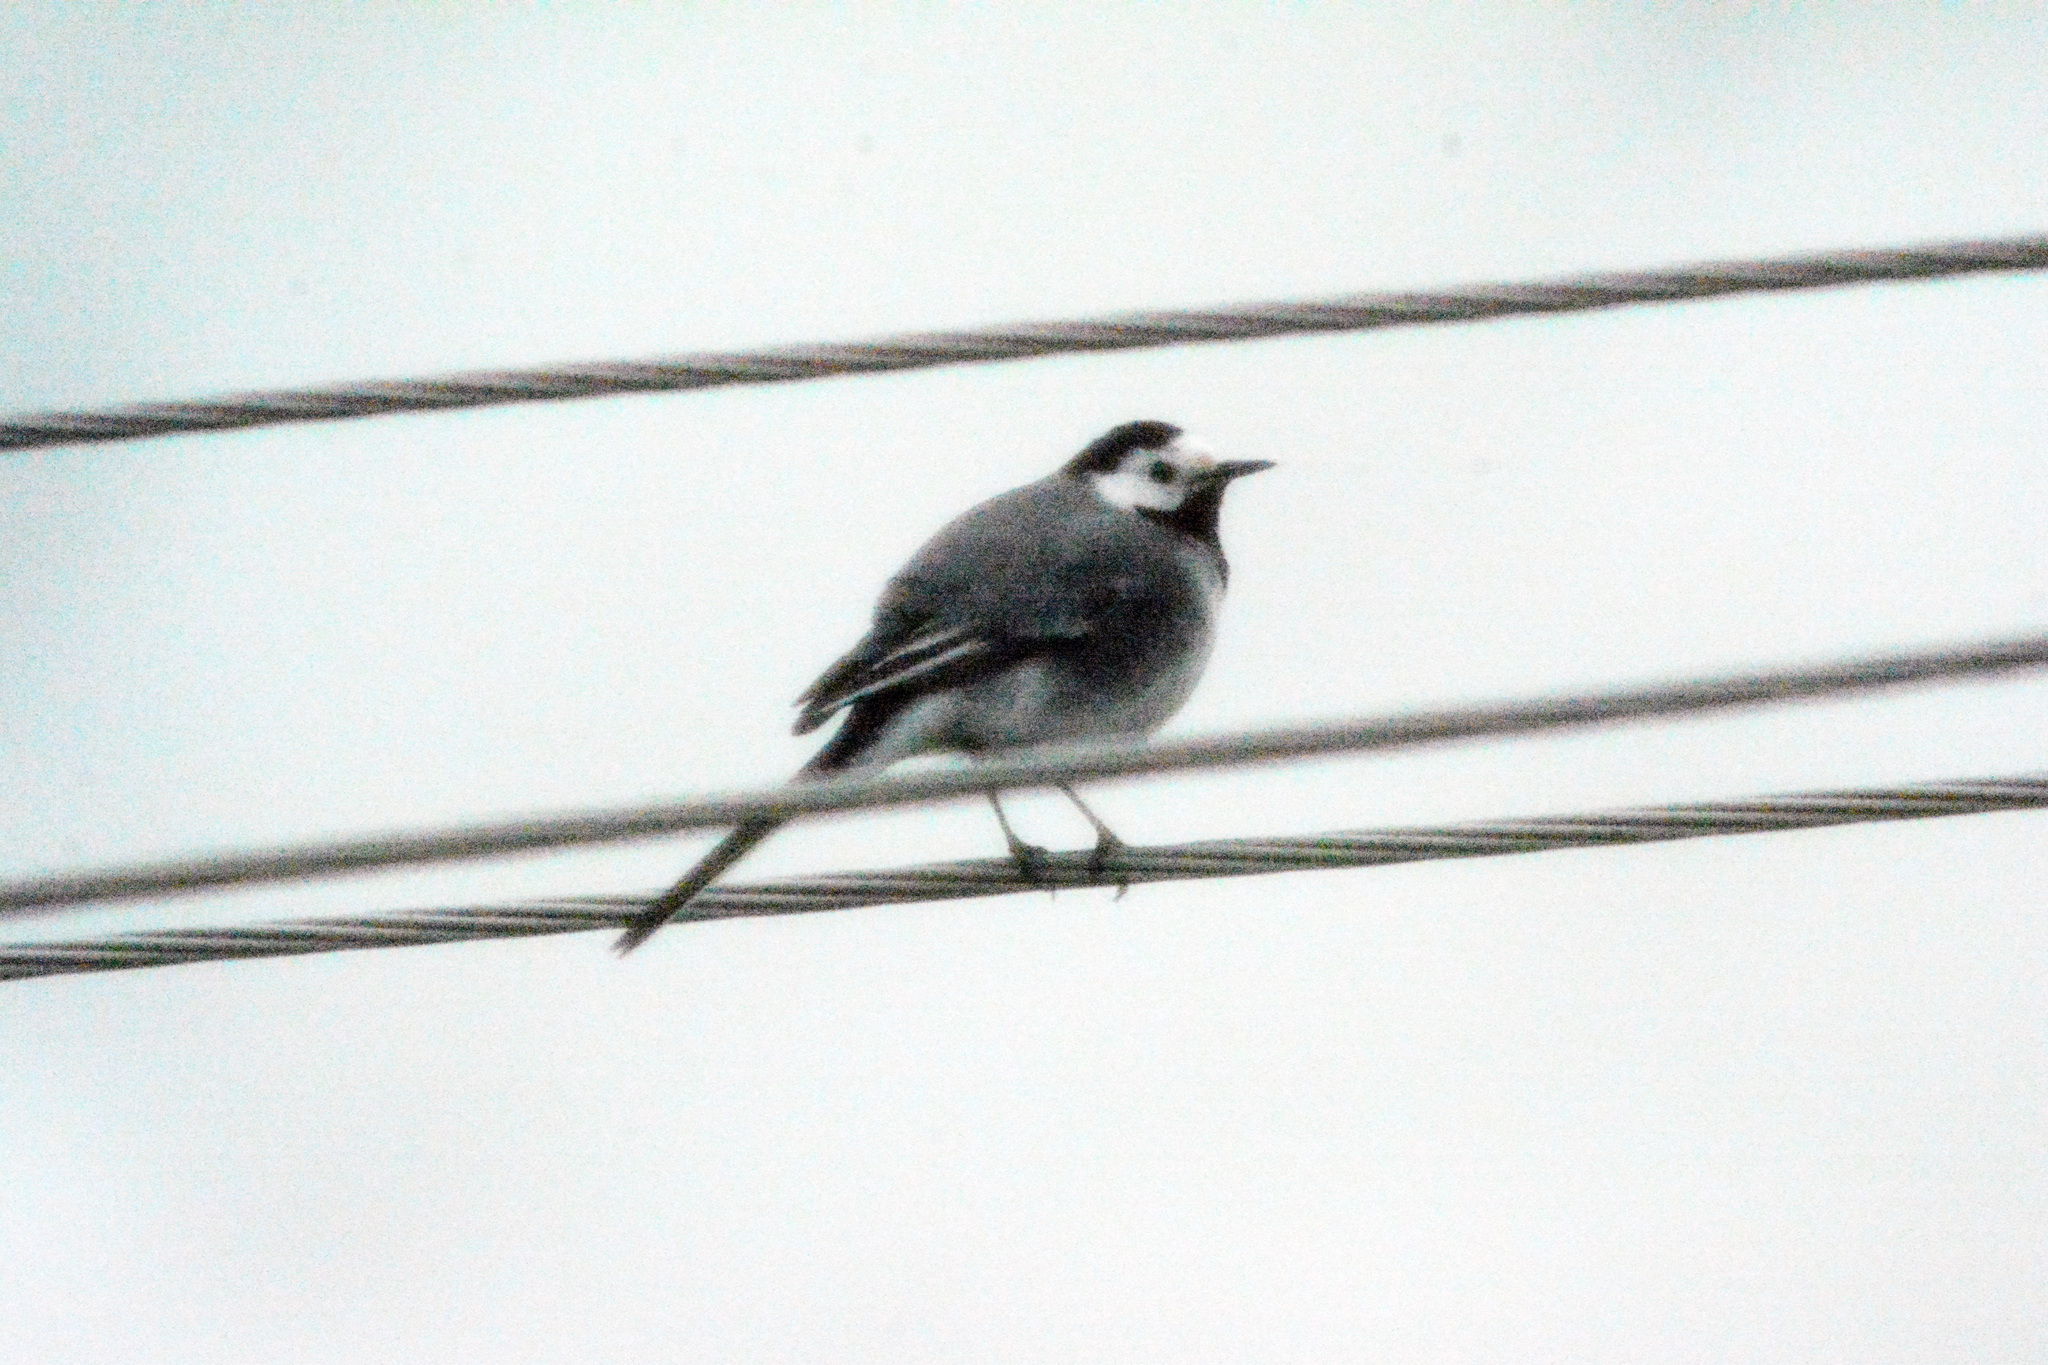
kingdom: Animalia
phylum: Chordata
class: Aves
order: Passeriformes
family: Motacillidae
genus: Motacilla
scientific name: Motacilla alba
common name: White wagtail
